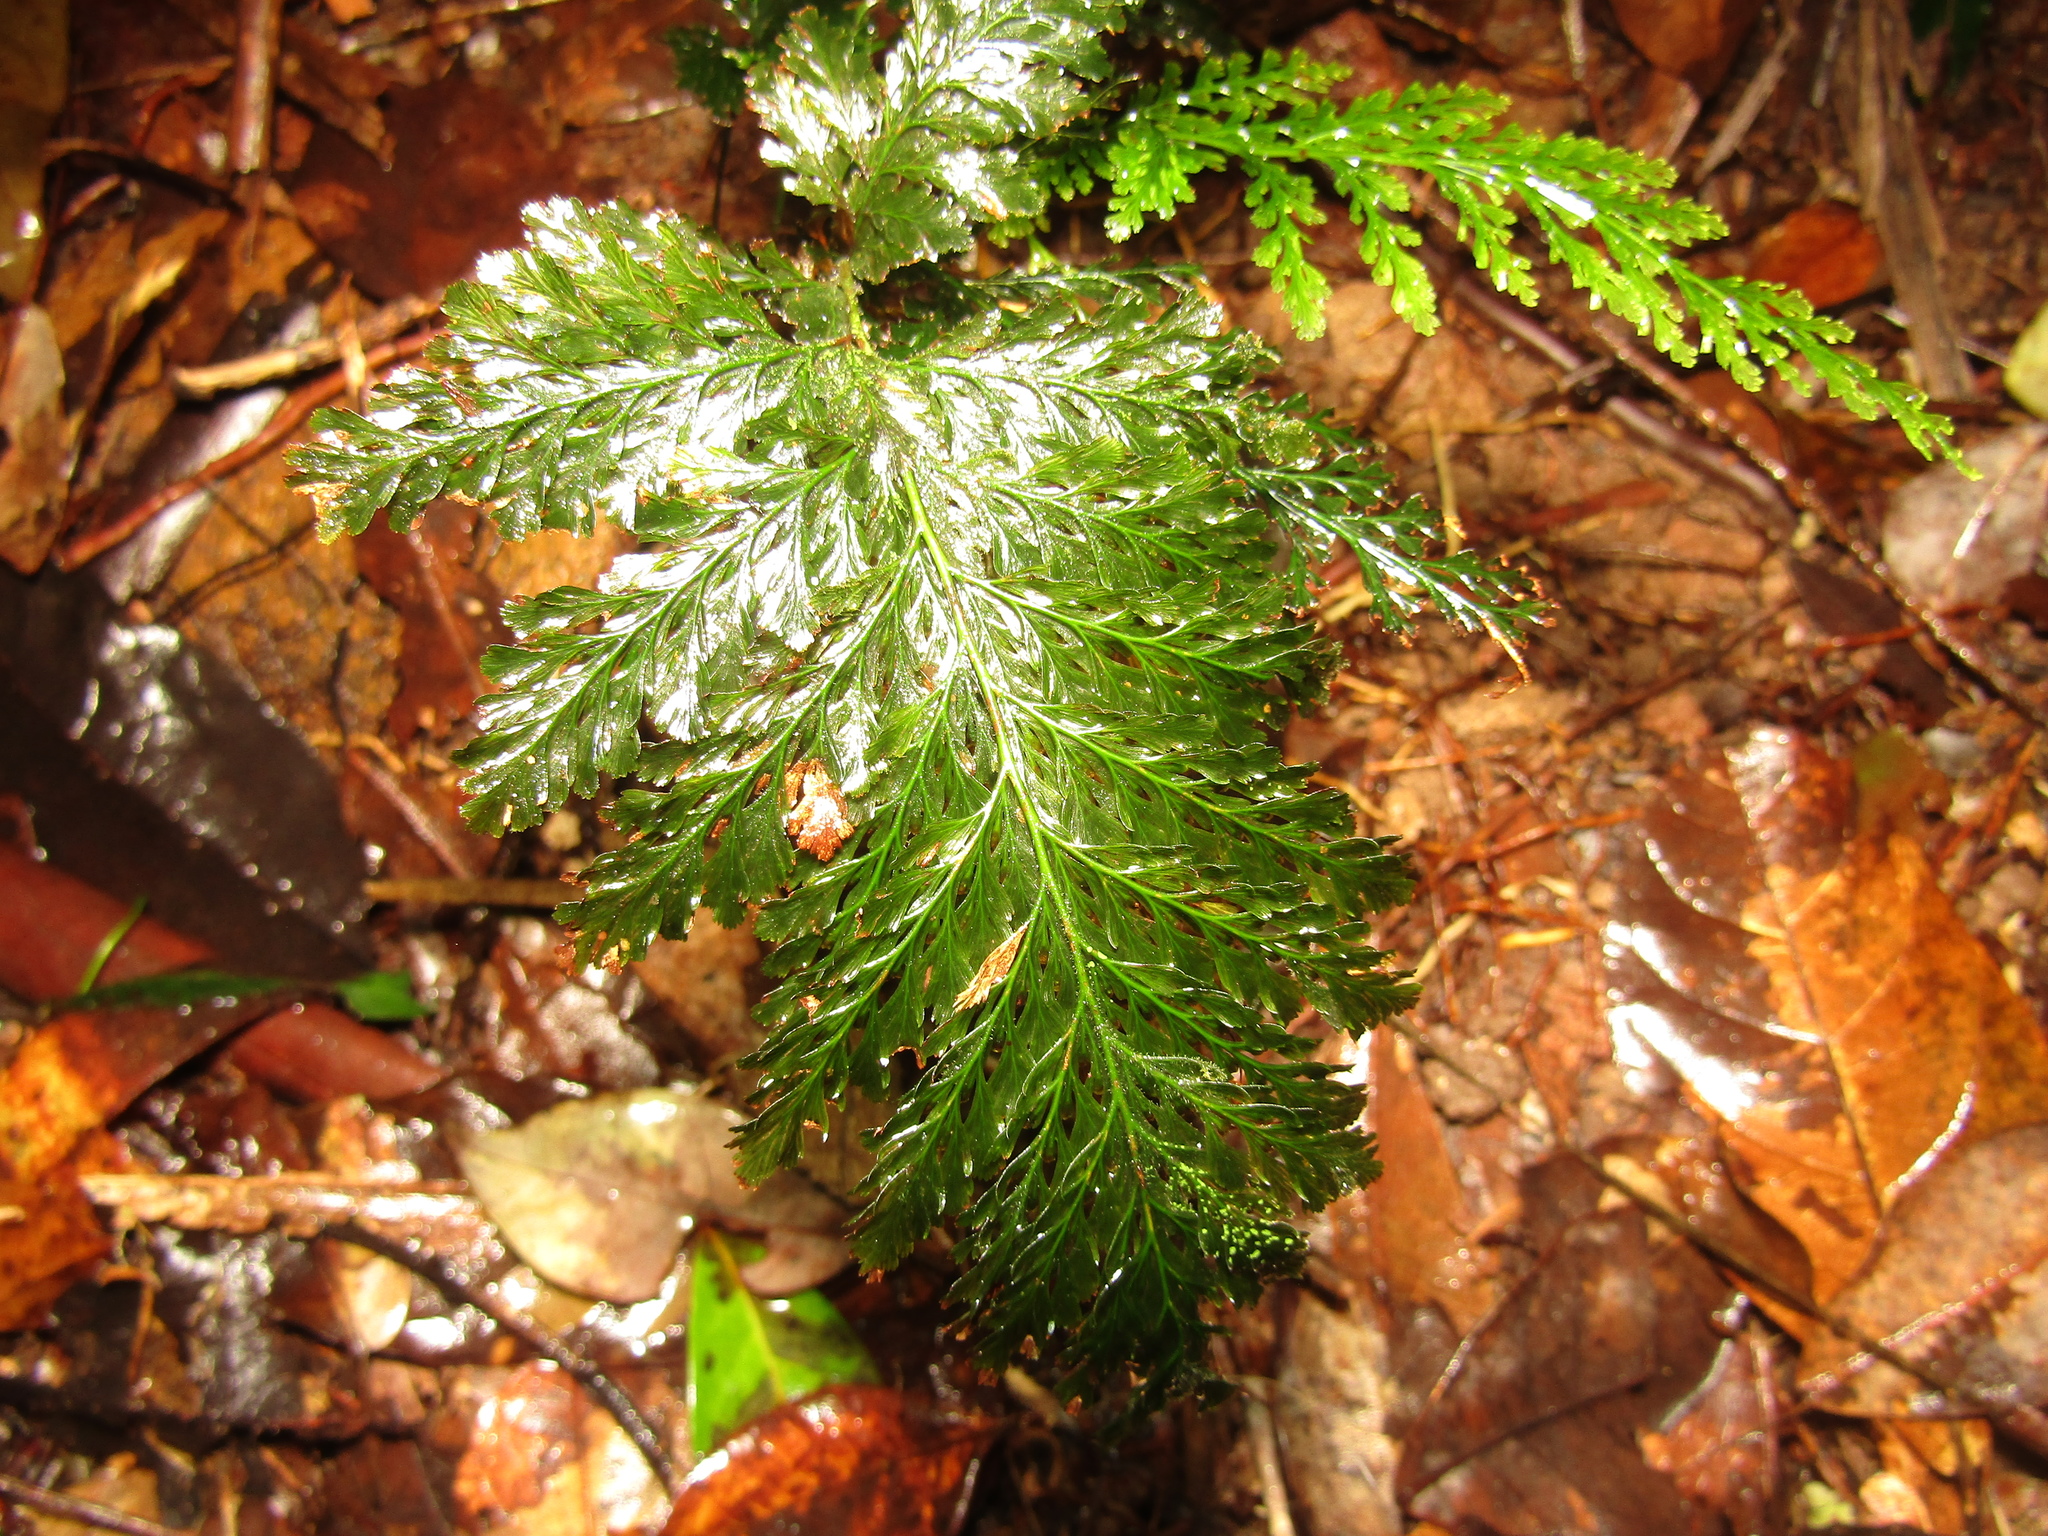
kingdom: Plantae
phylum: Tracheophyta
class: Polypodiopsida
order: Hymenophyllales
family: Hymenophyllaceae
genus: Abrodictyum
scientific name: Abrodictyum obscurum
